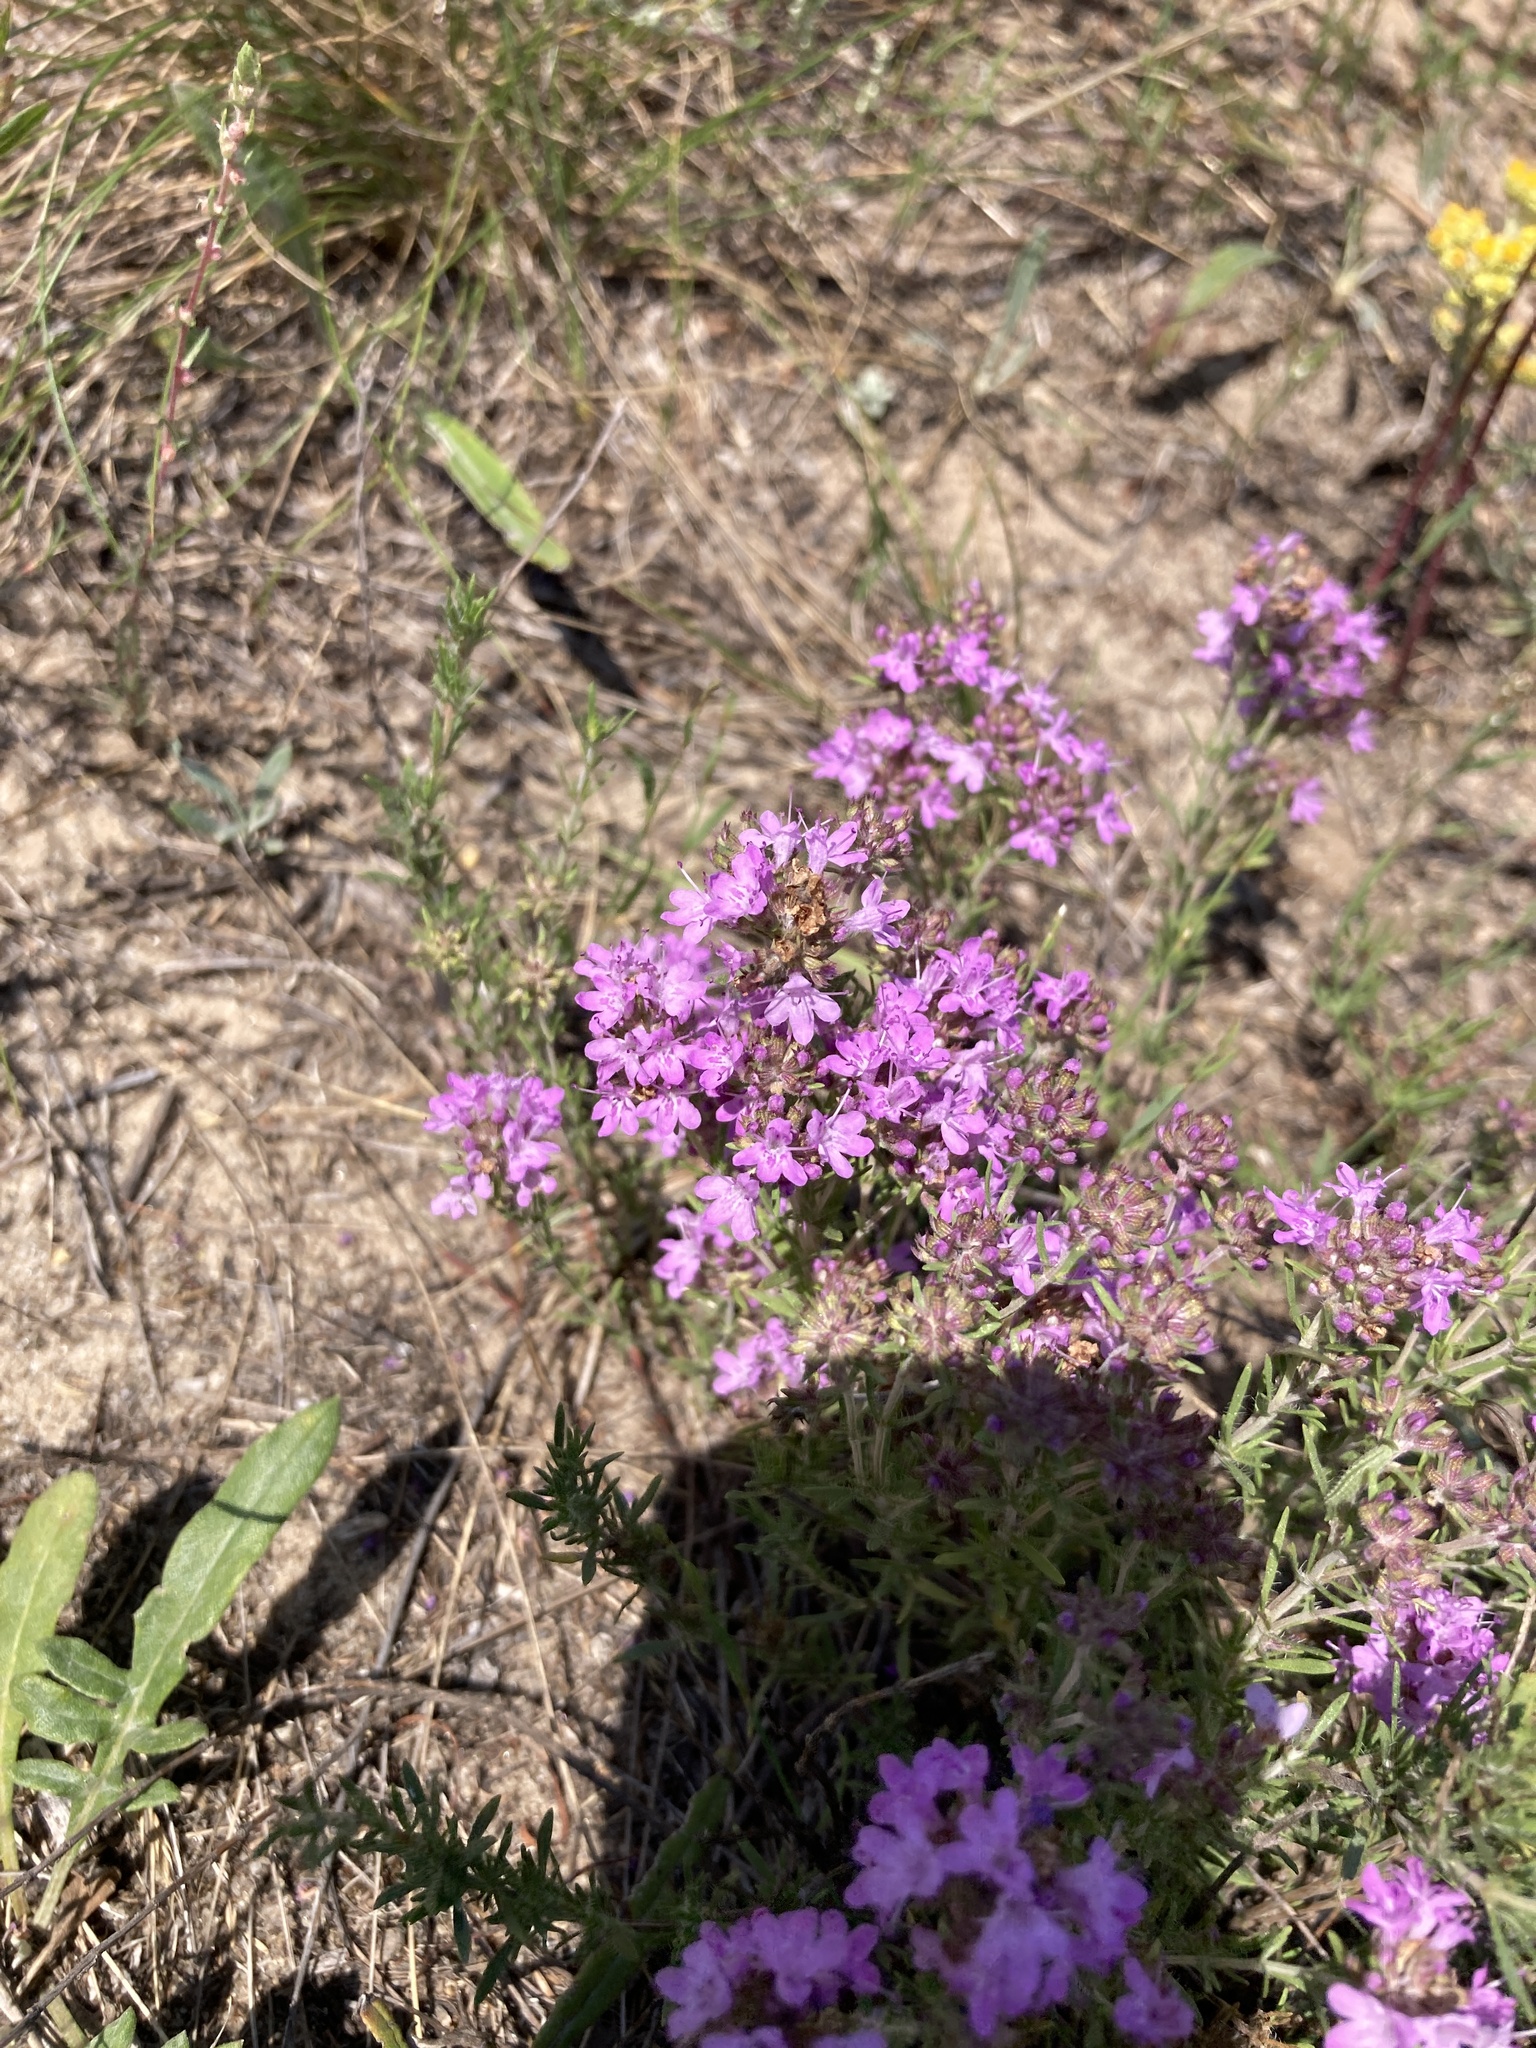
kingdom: Plantae
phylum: Tracheophyta
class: Magnoliopsida
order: Lamiales
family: Lamiaceae
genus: Thymus
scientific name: Thymus pallasianus
